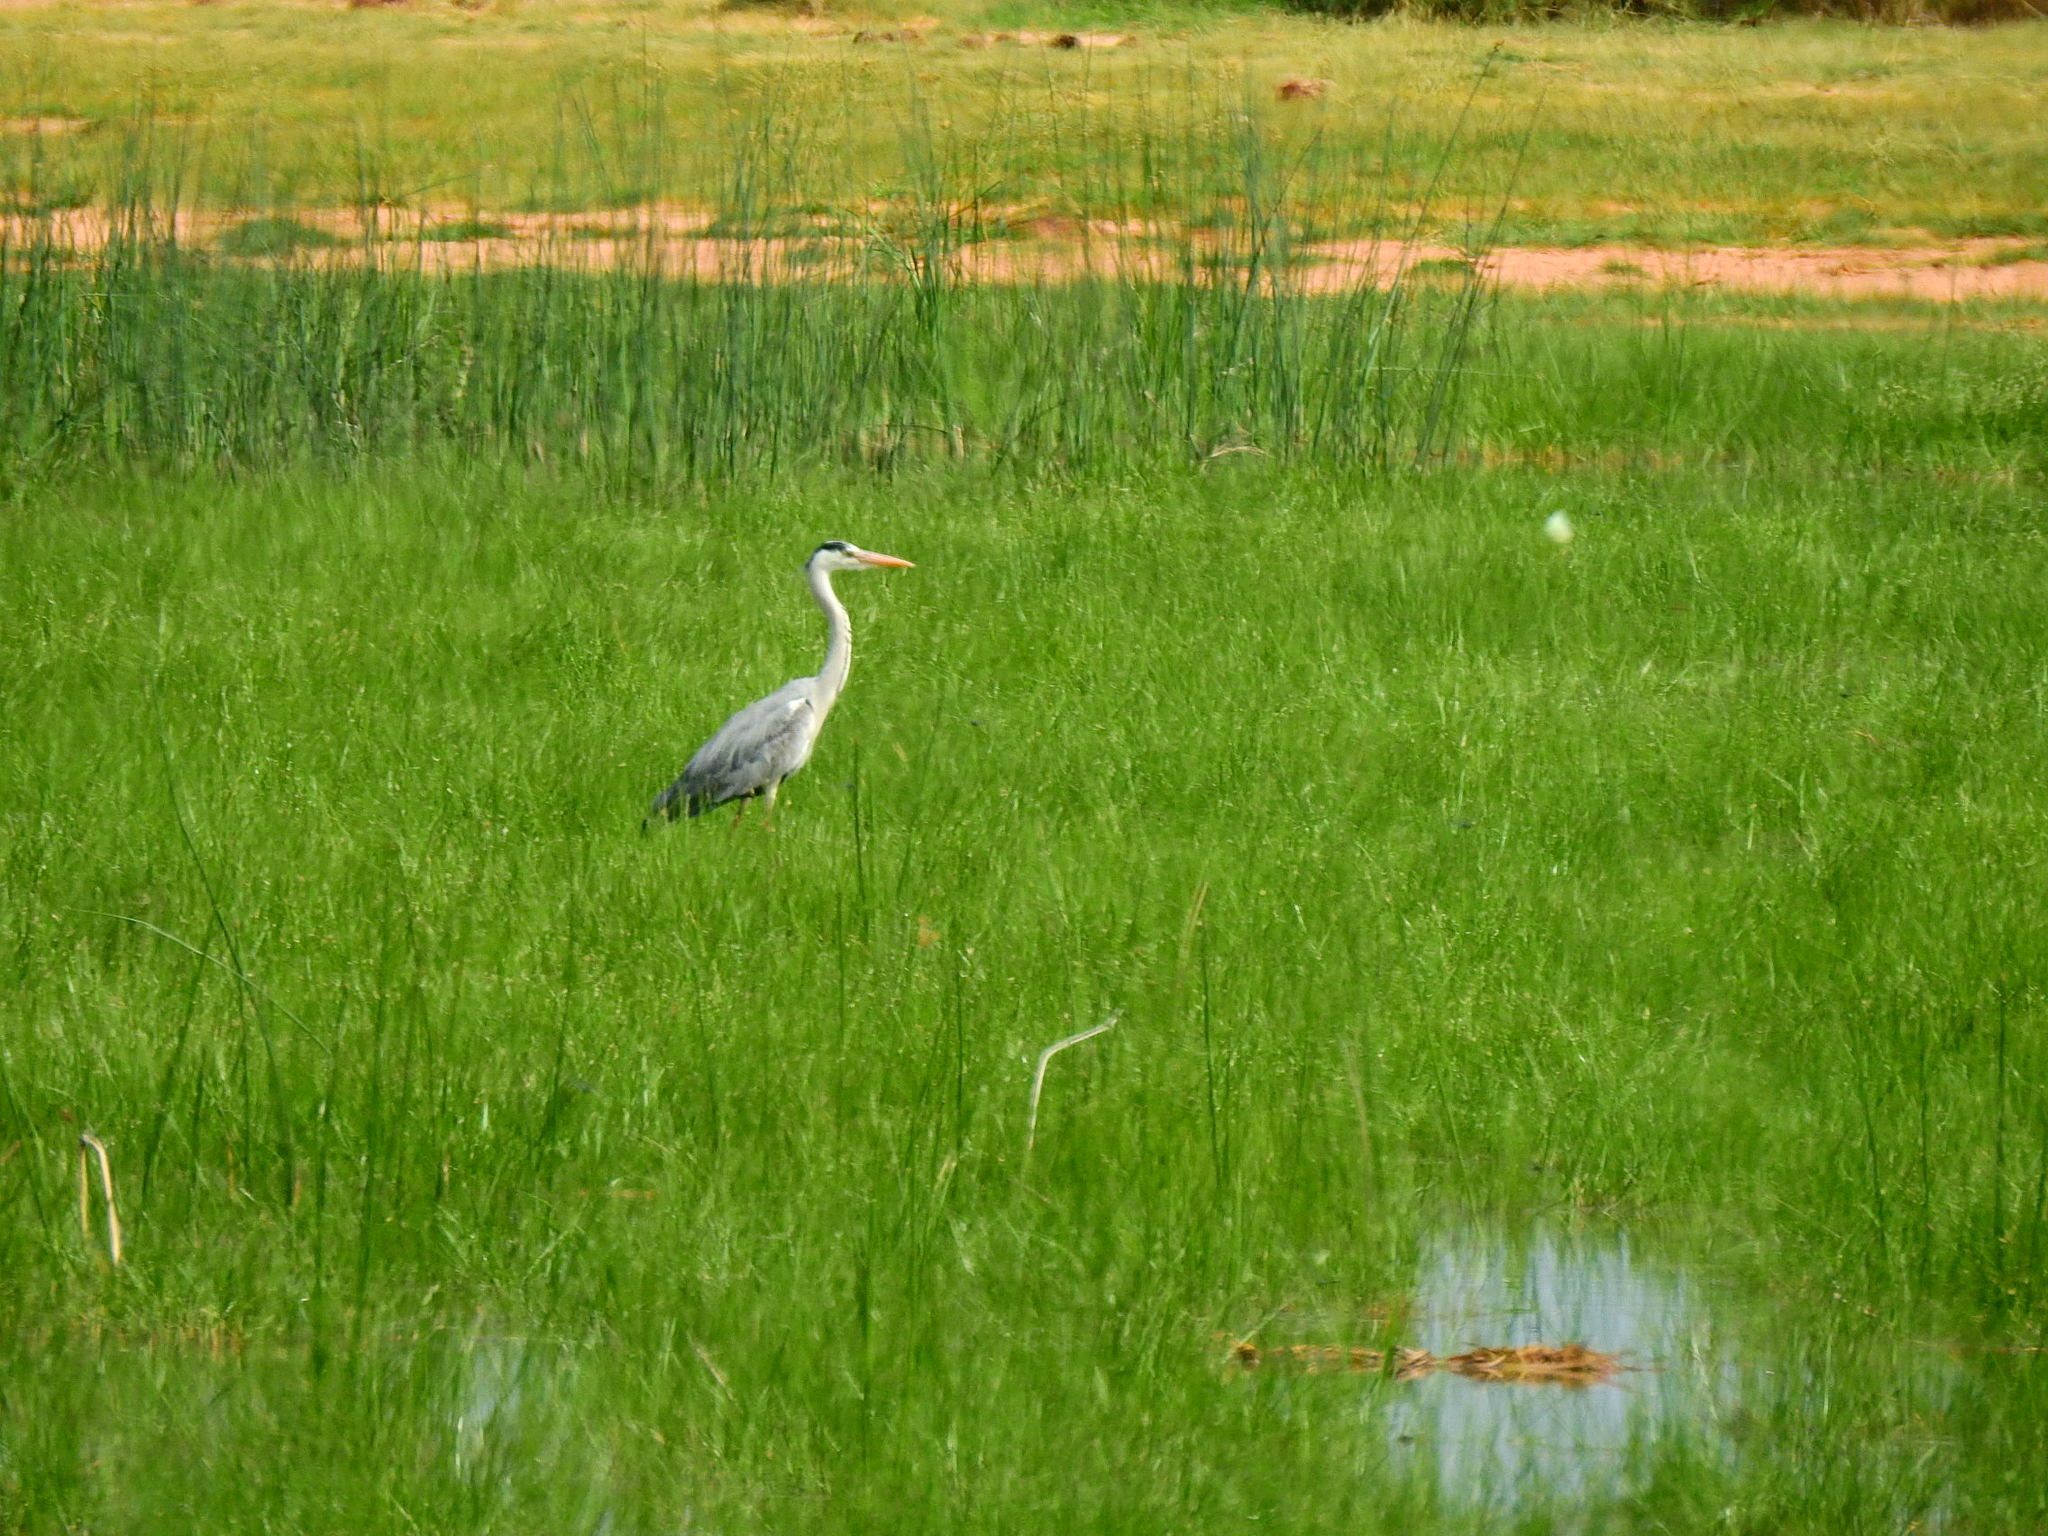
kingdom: Animalia
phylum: Chordata
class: Aves
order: Pelecaniformes
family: Ardeidae
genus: Ardea
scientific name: Ardea cinerea
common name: Grey heron
